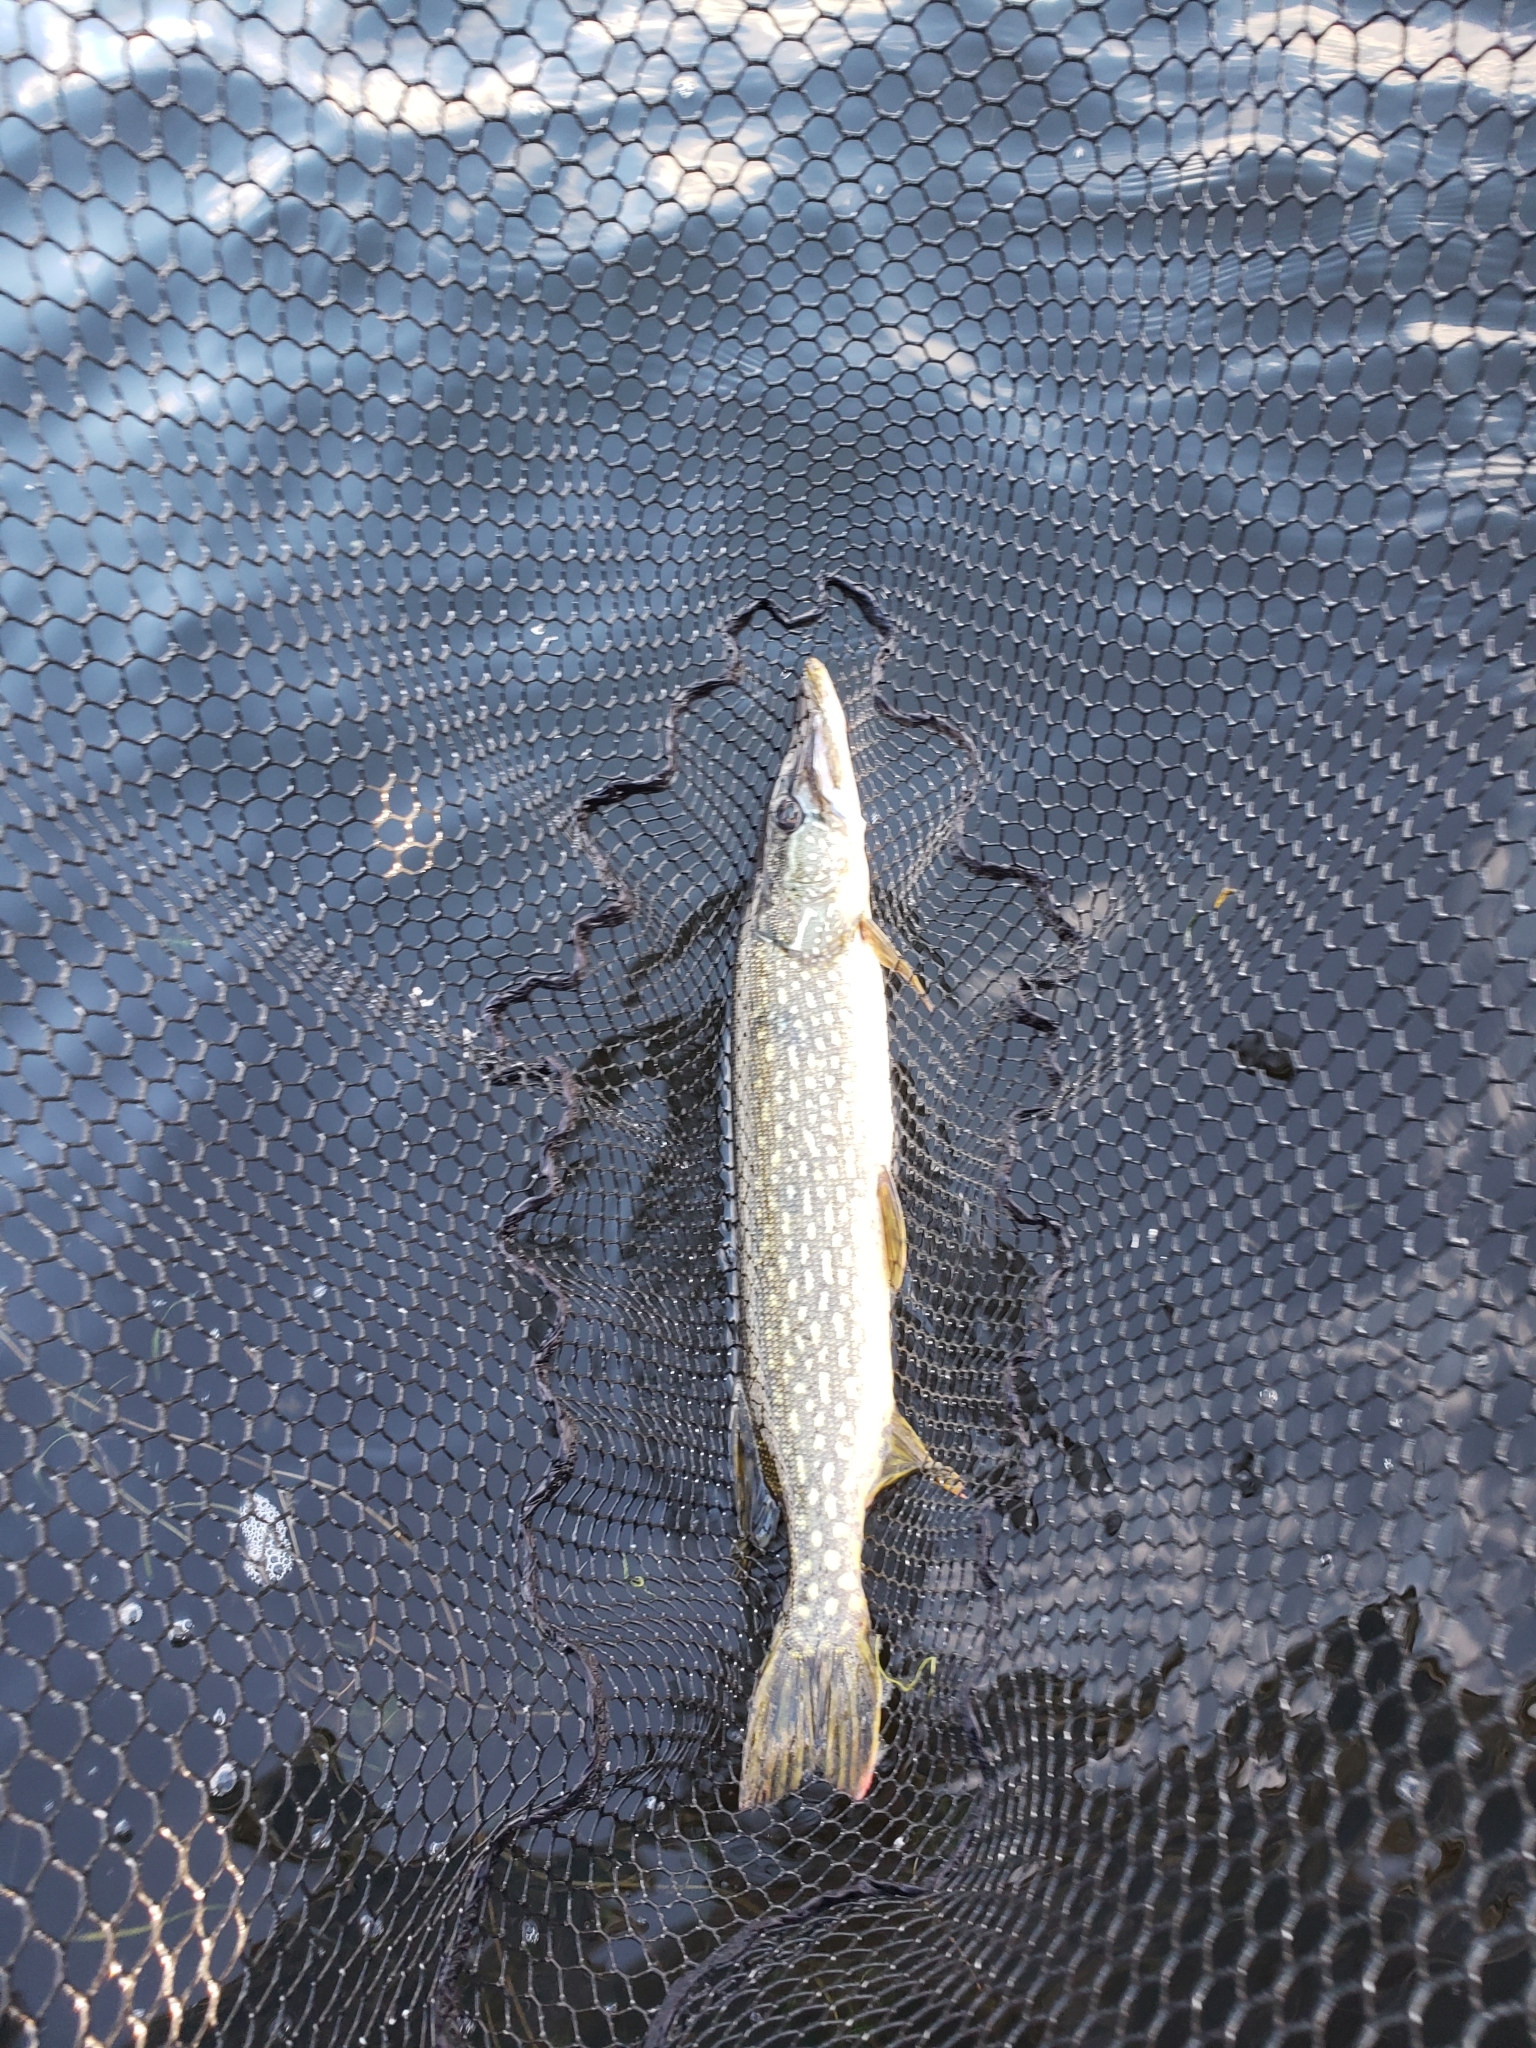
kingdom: Animalia
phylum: Chordata
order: Esociformes
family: Esocidae
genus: Esox
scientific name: Esox lucius
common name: Northern pike
